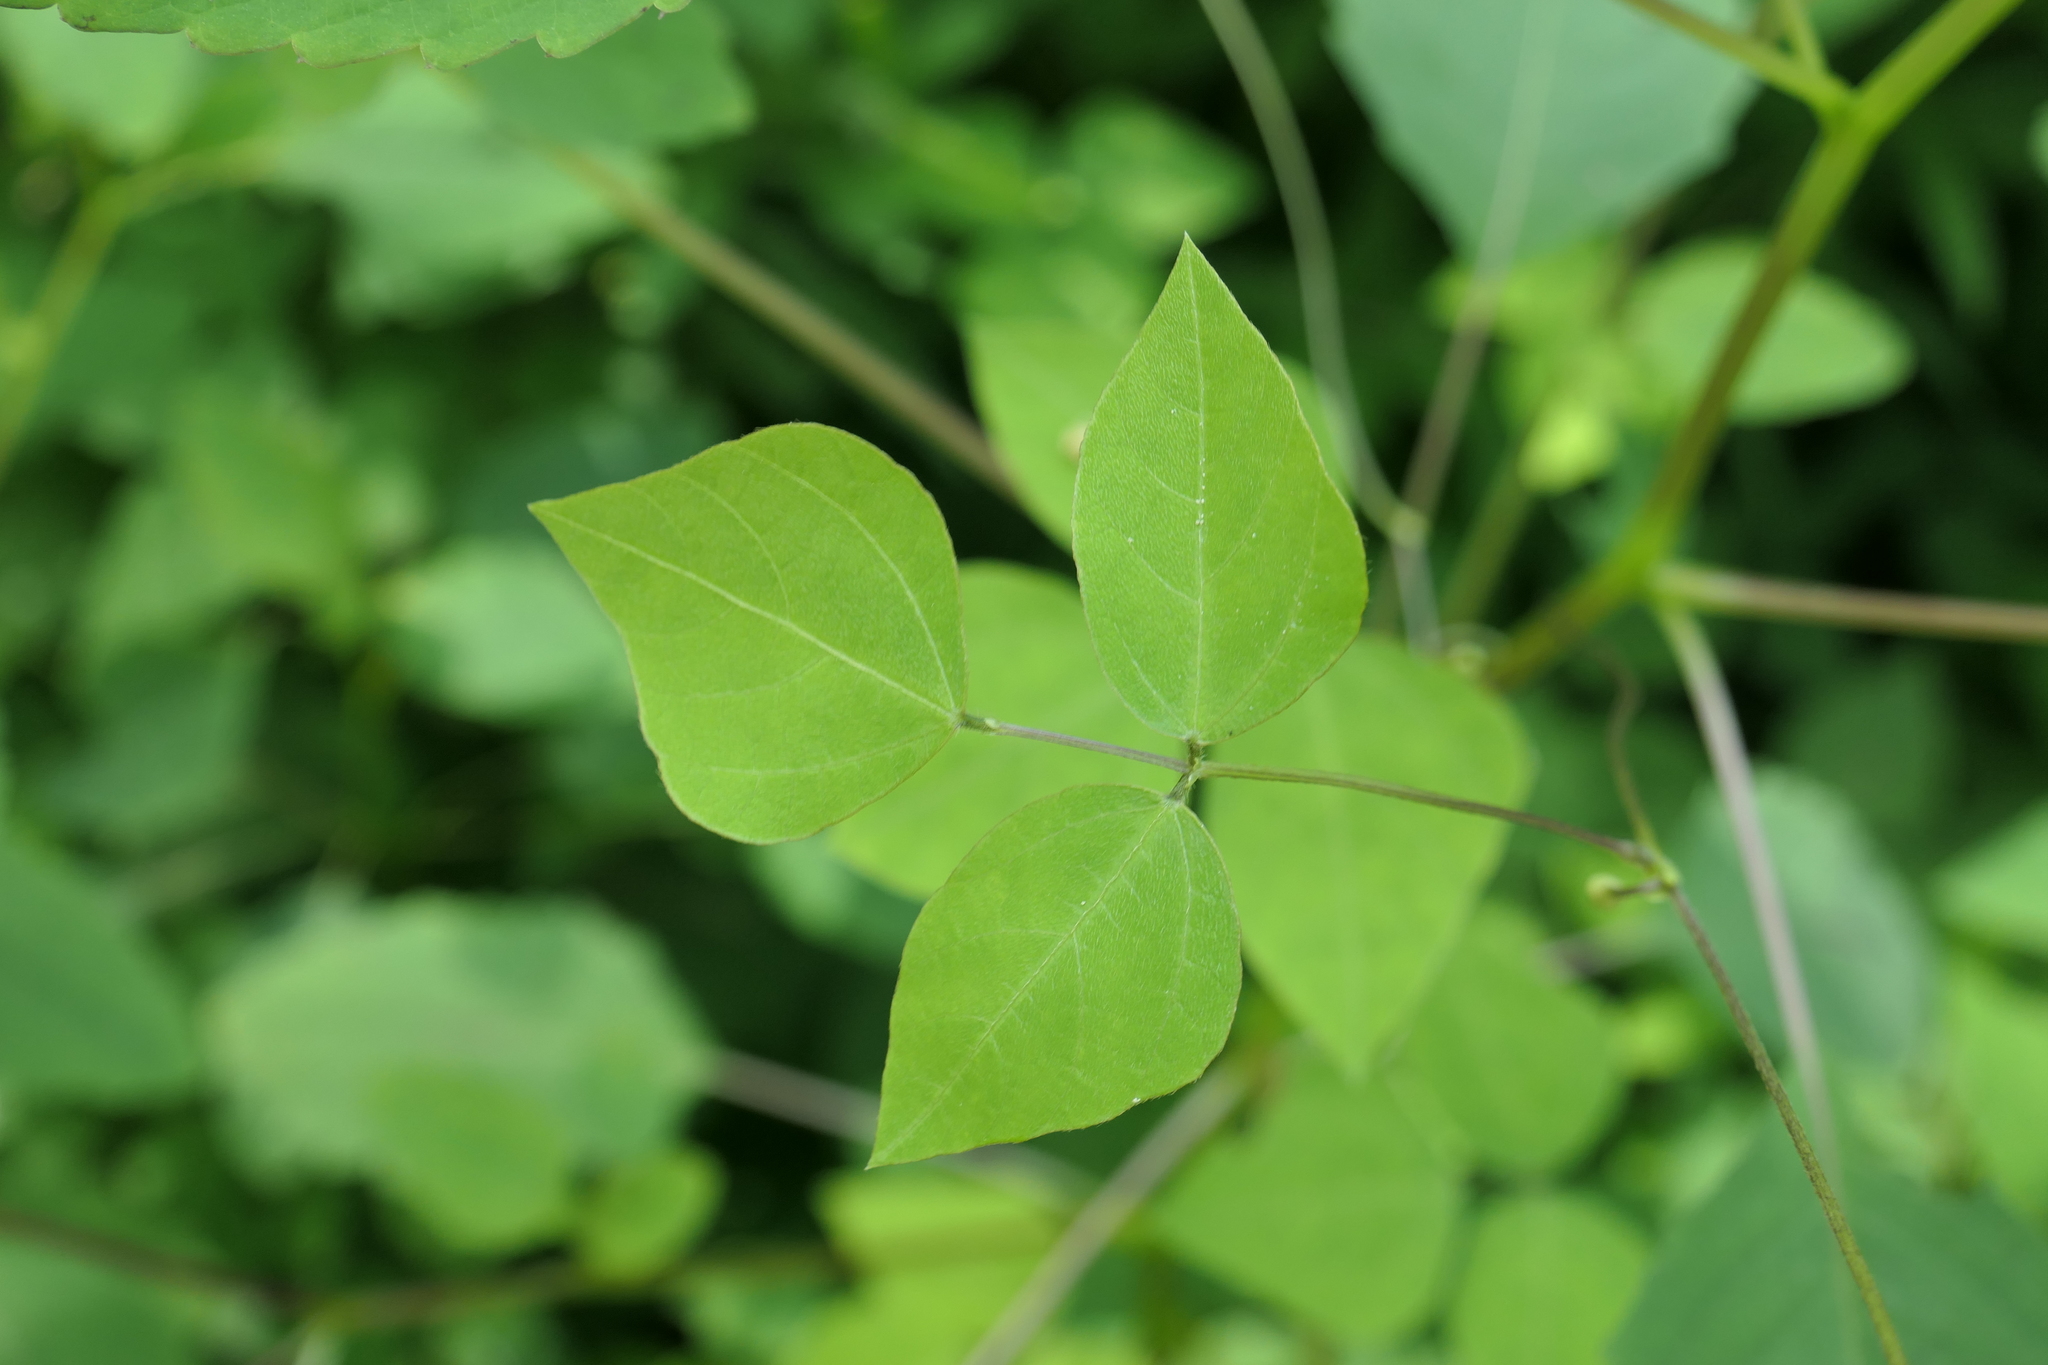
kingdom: Plantae
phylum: Tracheophyta
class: Magnoliopsida
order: Ericales
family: Balsaminaceae
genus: Impatiens
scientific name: Impatiens pallida
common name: Pale snapweed
